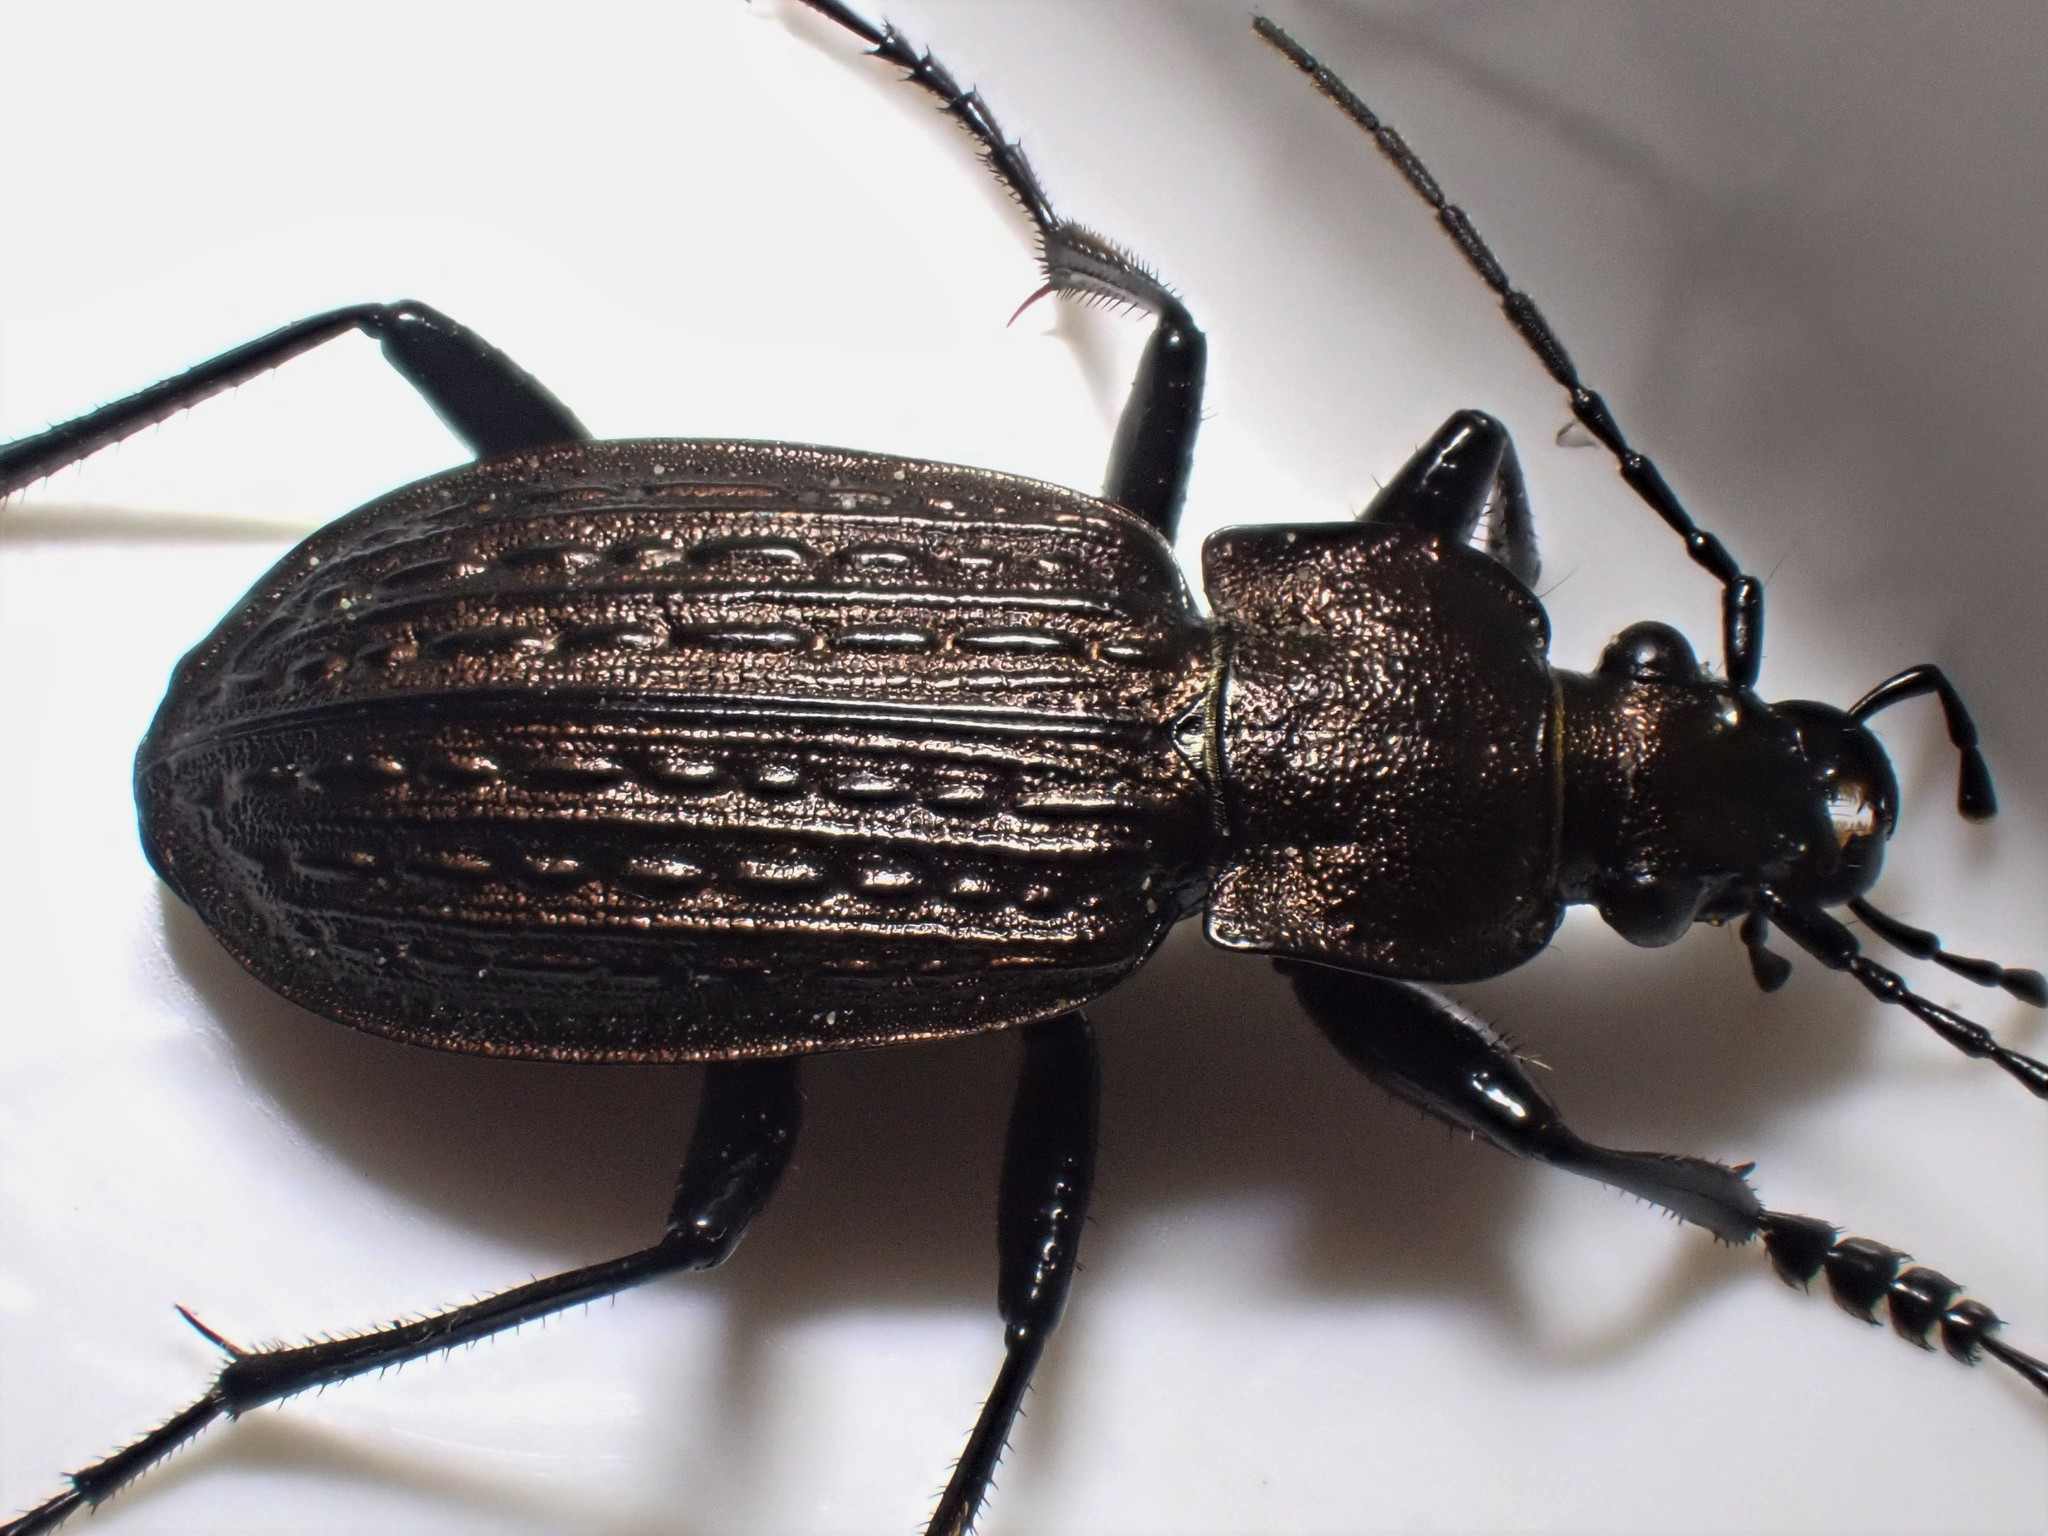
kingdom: Animalia
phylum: Arthropoda
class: Insecta
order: Coleoptera
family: Carabidae
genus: Carabus
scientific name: Carabus granulatus
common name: Granulate ground beetle
